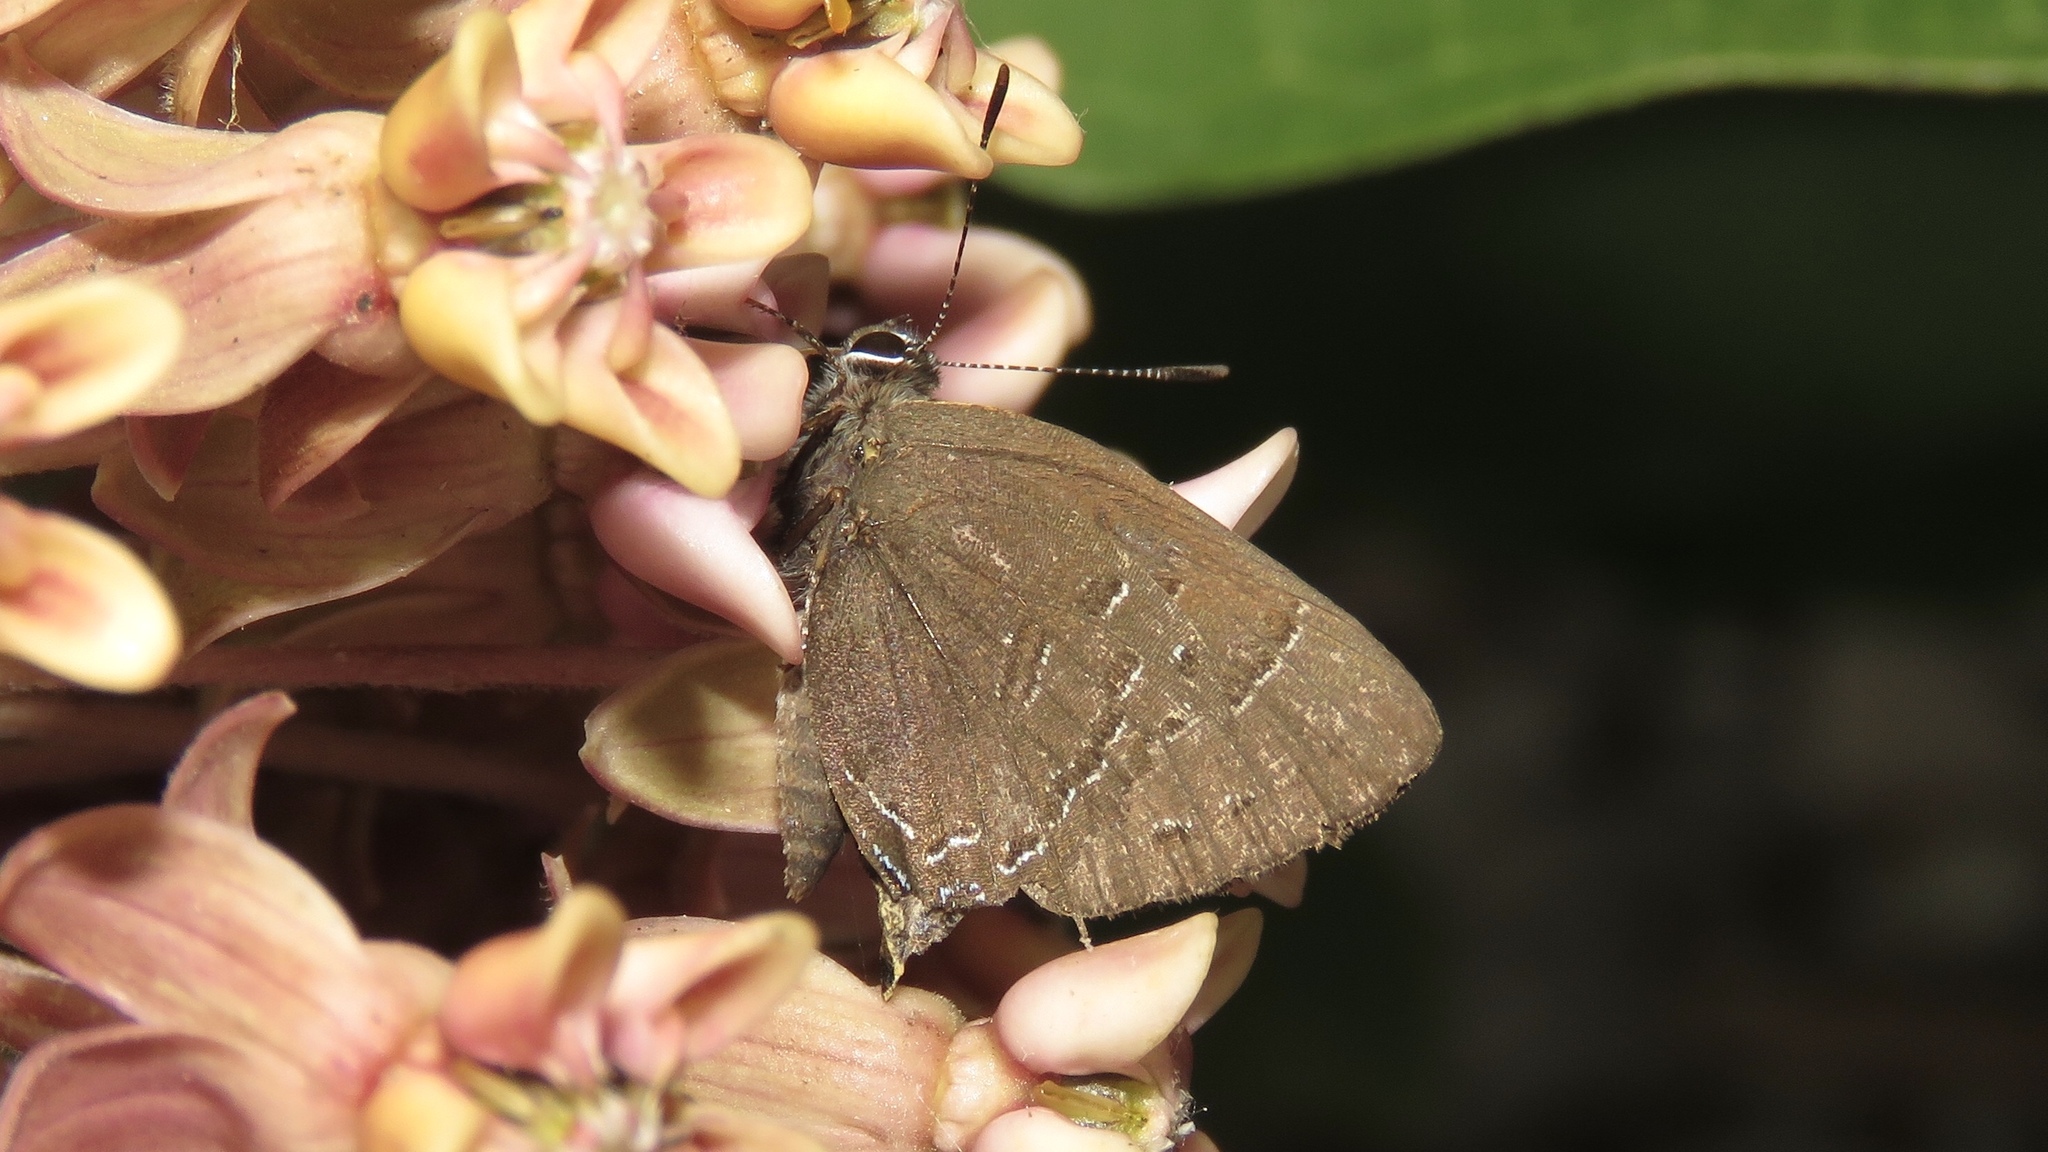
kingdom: Animalia
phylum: Arthropoda
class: Insecta
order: Lepidoptera
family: Lycaenidae
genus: Satyrium
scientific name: Satyrium calanus
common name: Banded hairstreak
